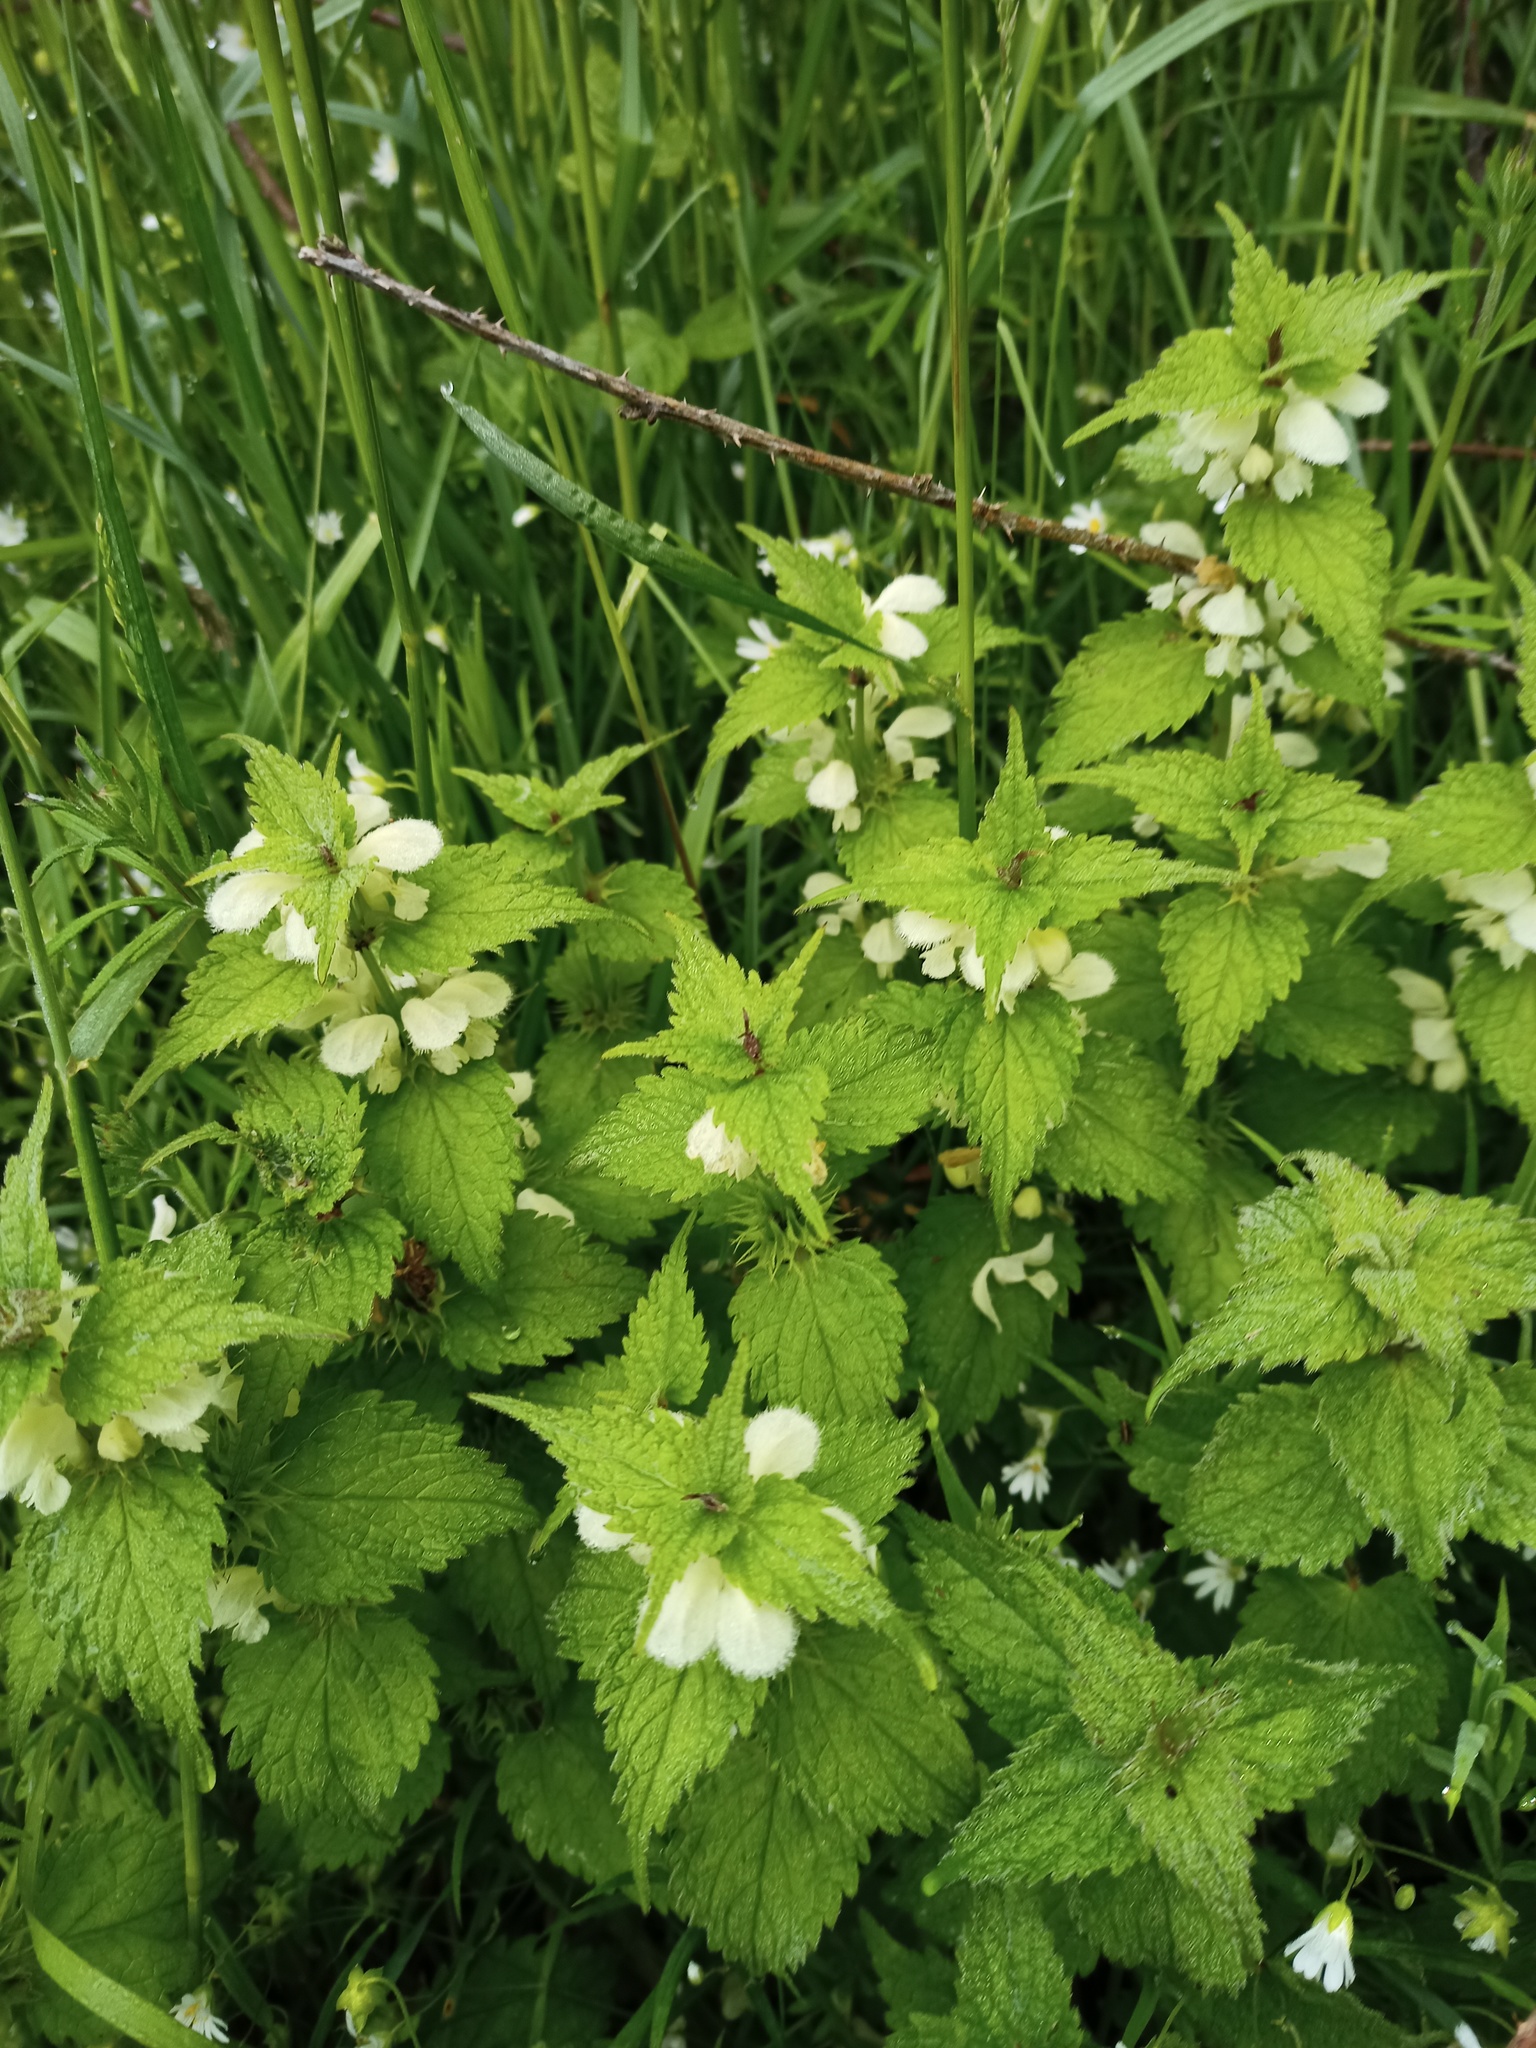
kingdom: Plantae
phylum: Tracheophyta
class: Magnoliopsida
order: Lamiales
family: Lamiaceae
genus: Lamium
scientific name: Lamium album
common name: White dead-nettle
